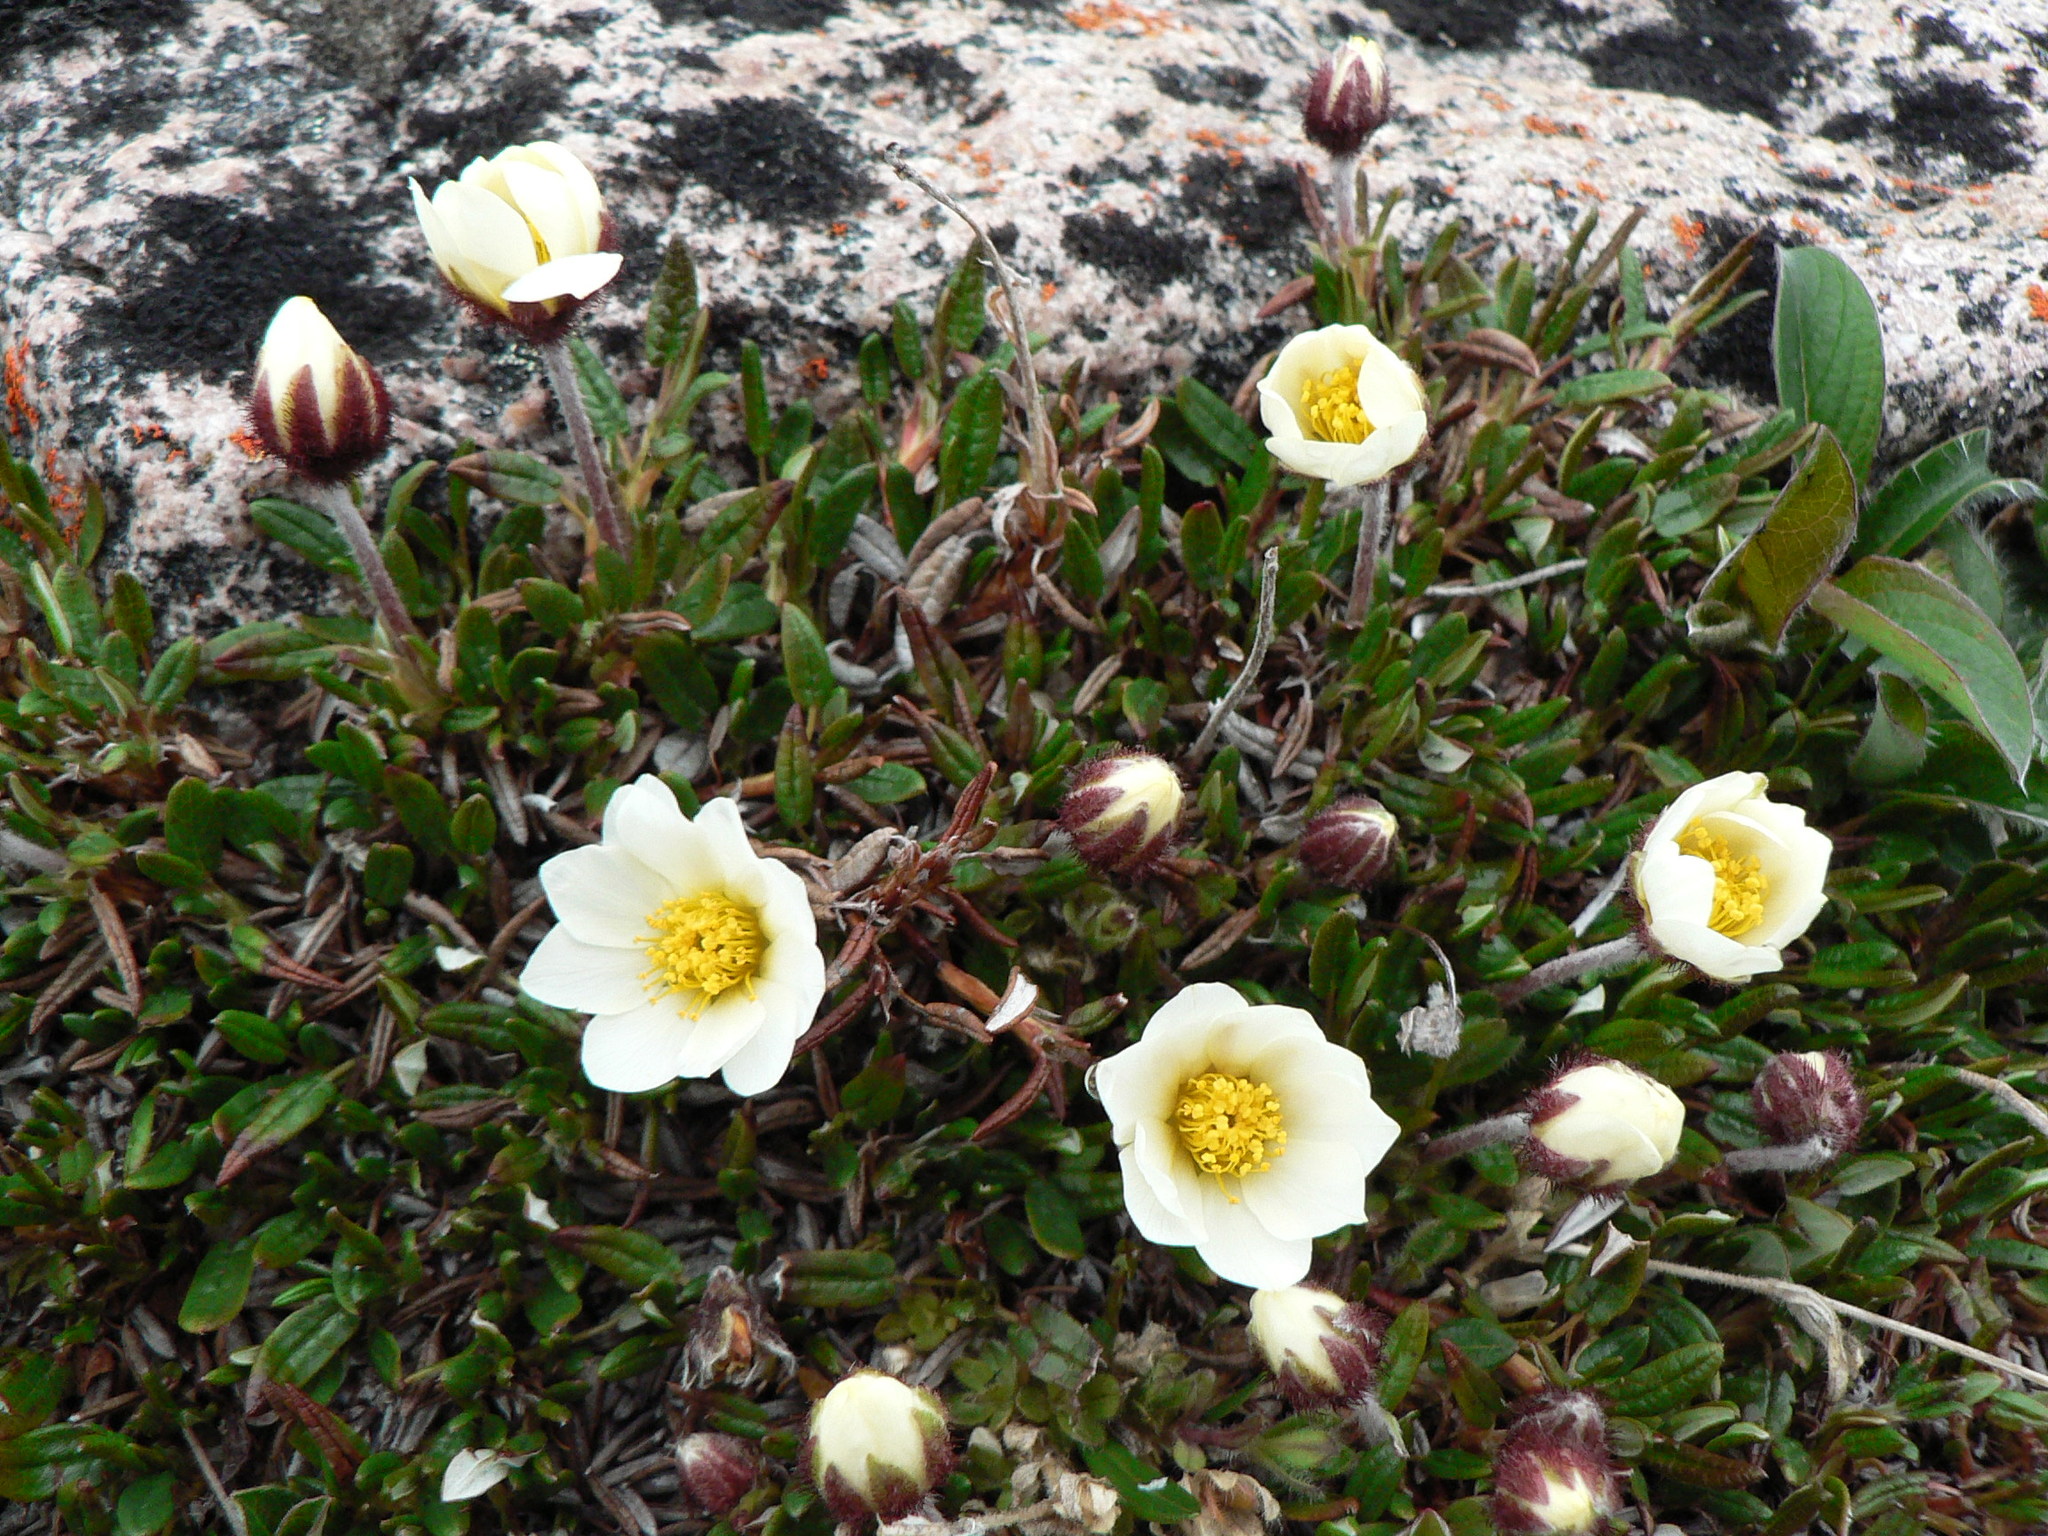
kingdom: Plantae
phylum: Tracheophyta
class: Magnoliopsida
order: Rosales
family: Rosaceae
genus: Dryas
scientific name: Dryas integrifolia
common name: Entire-leaved mountain avens
